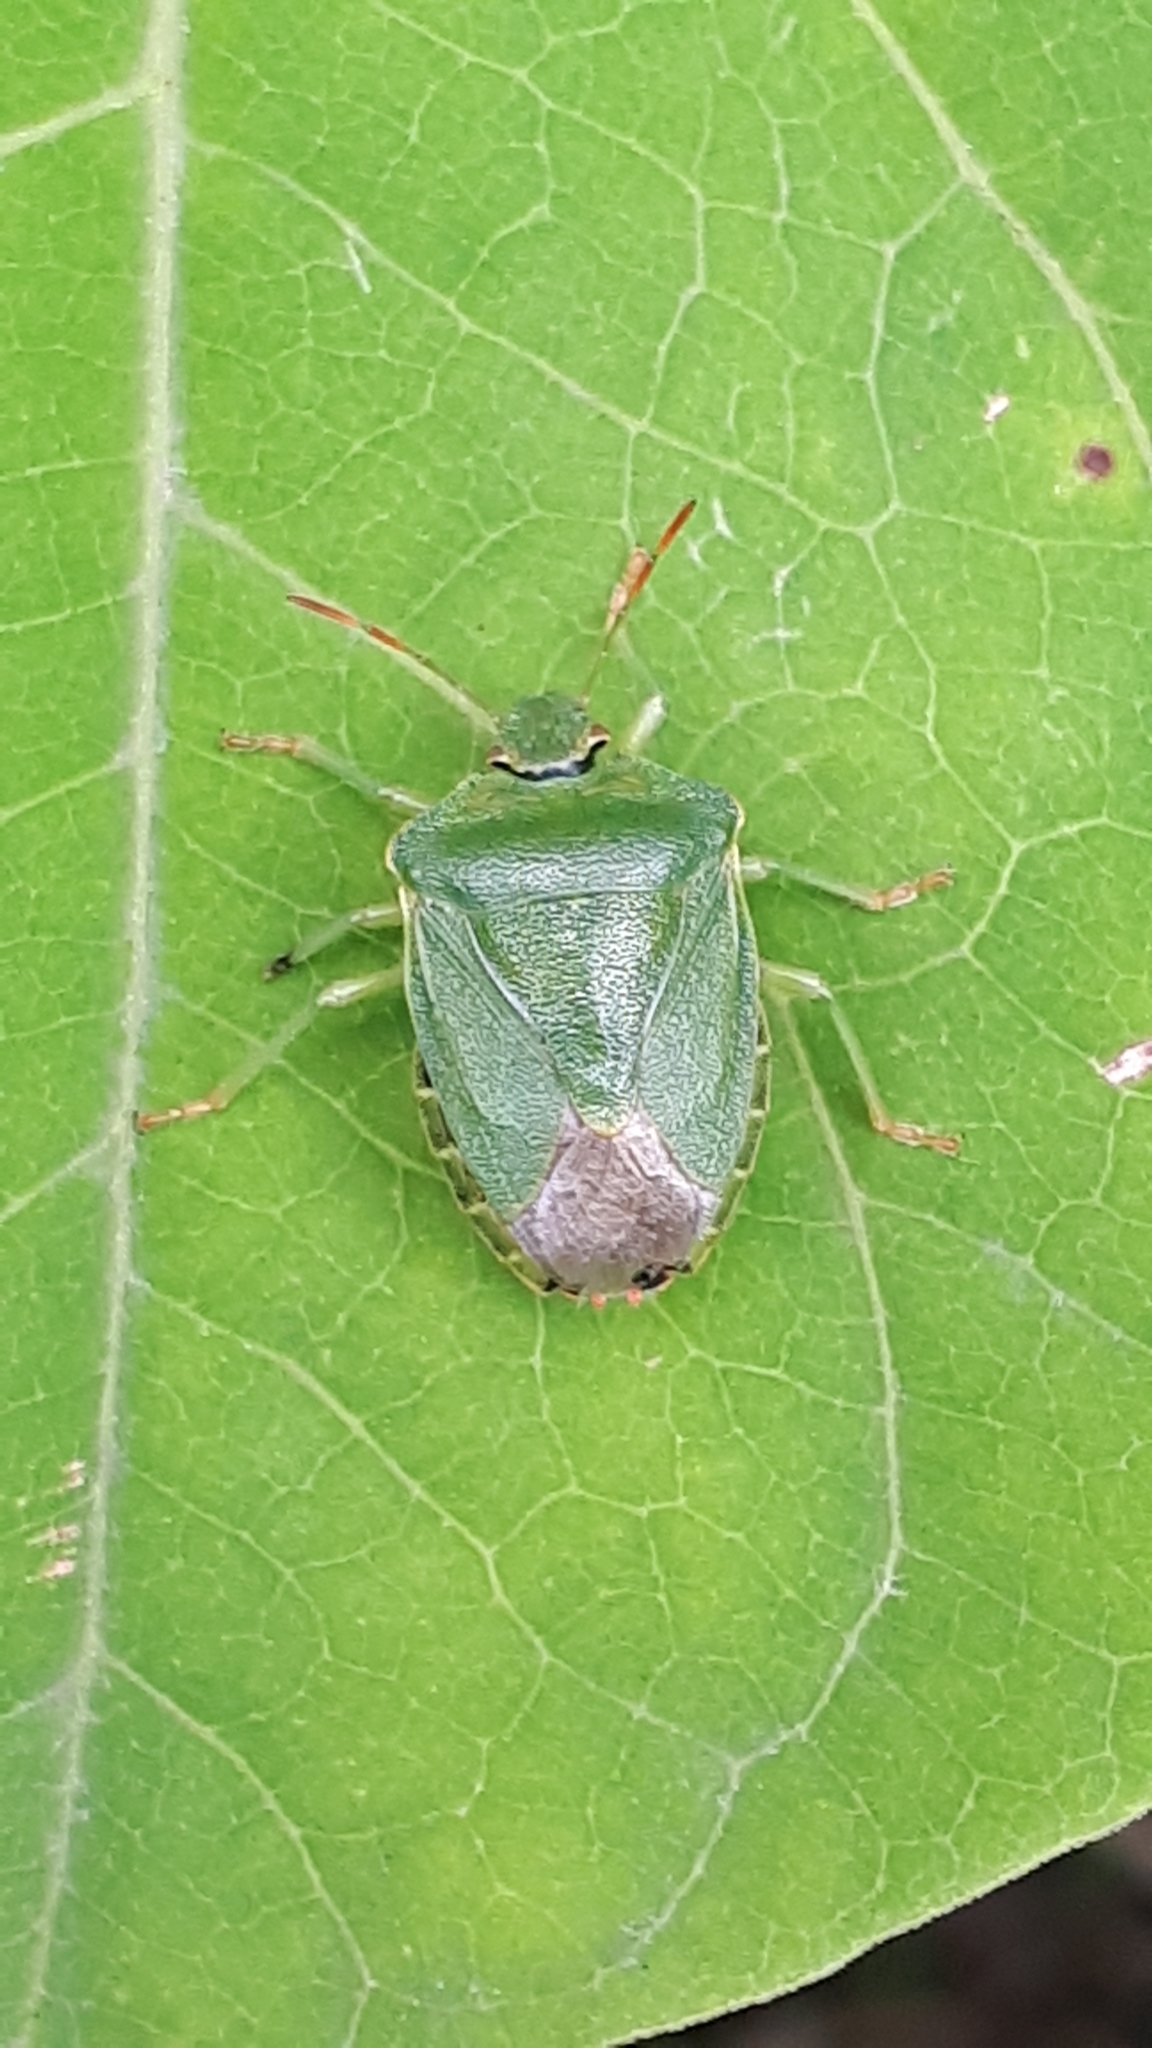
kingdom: Animalia
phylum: Arthropoda
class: Insecta
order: Hemiptera
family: Pentatomidae
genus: Palomena
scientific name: Palomena prasina
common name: Green shieldbug
